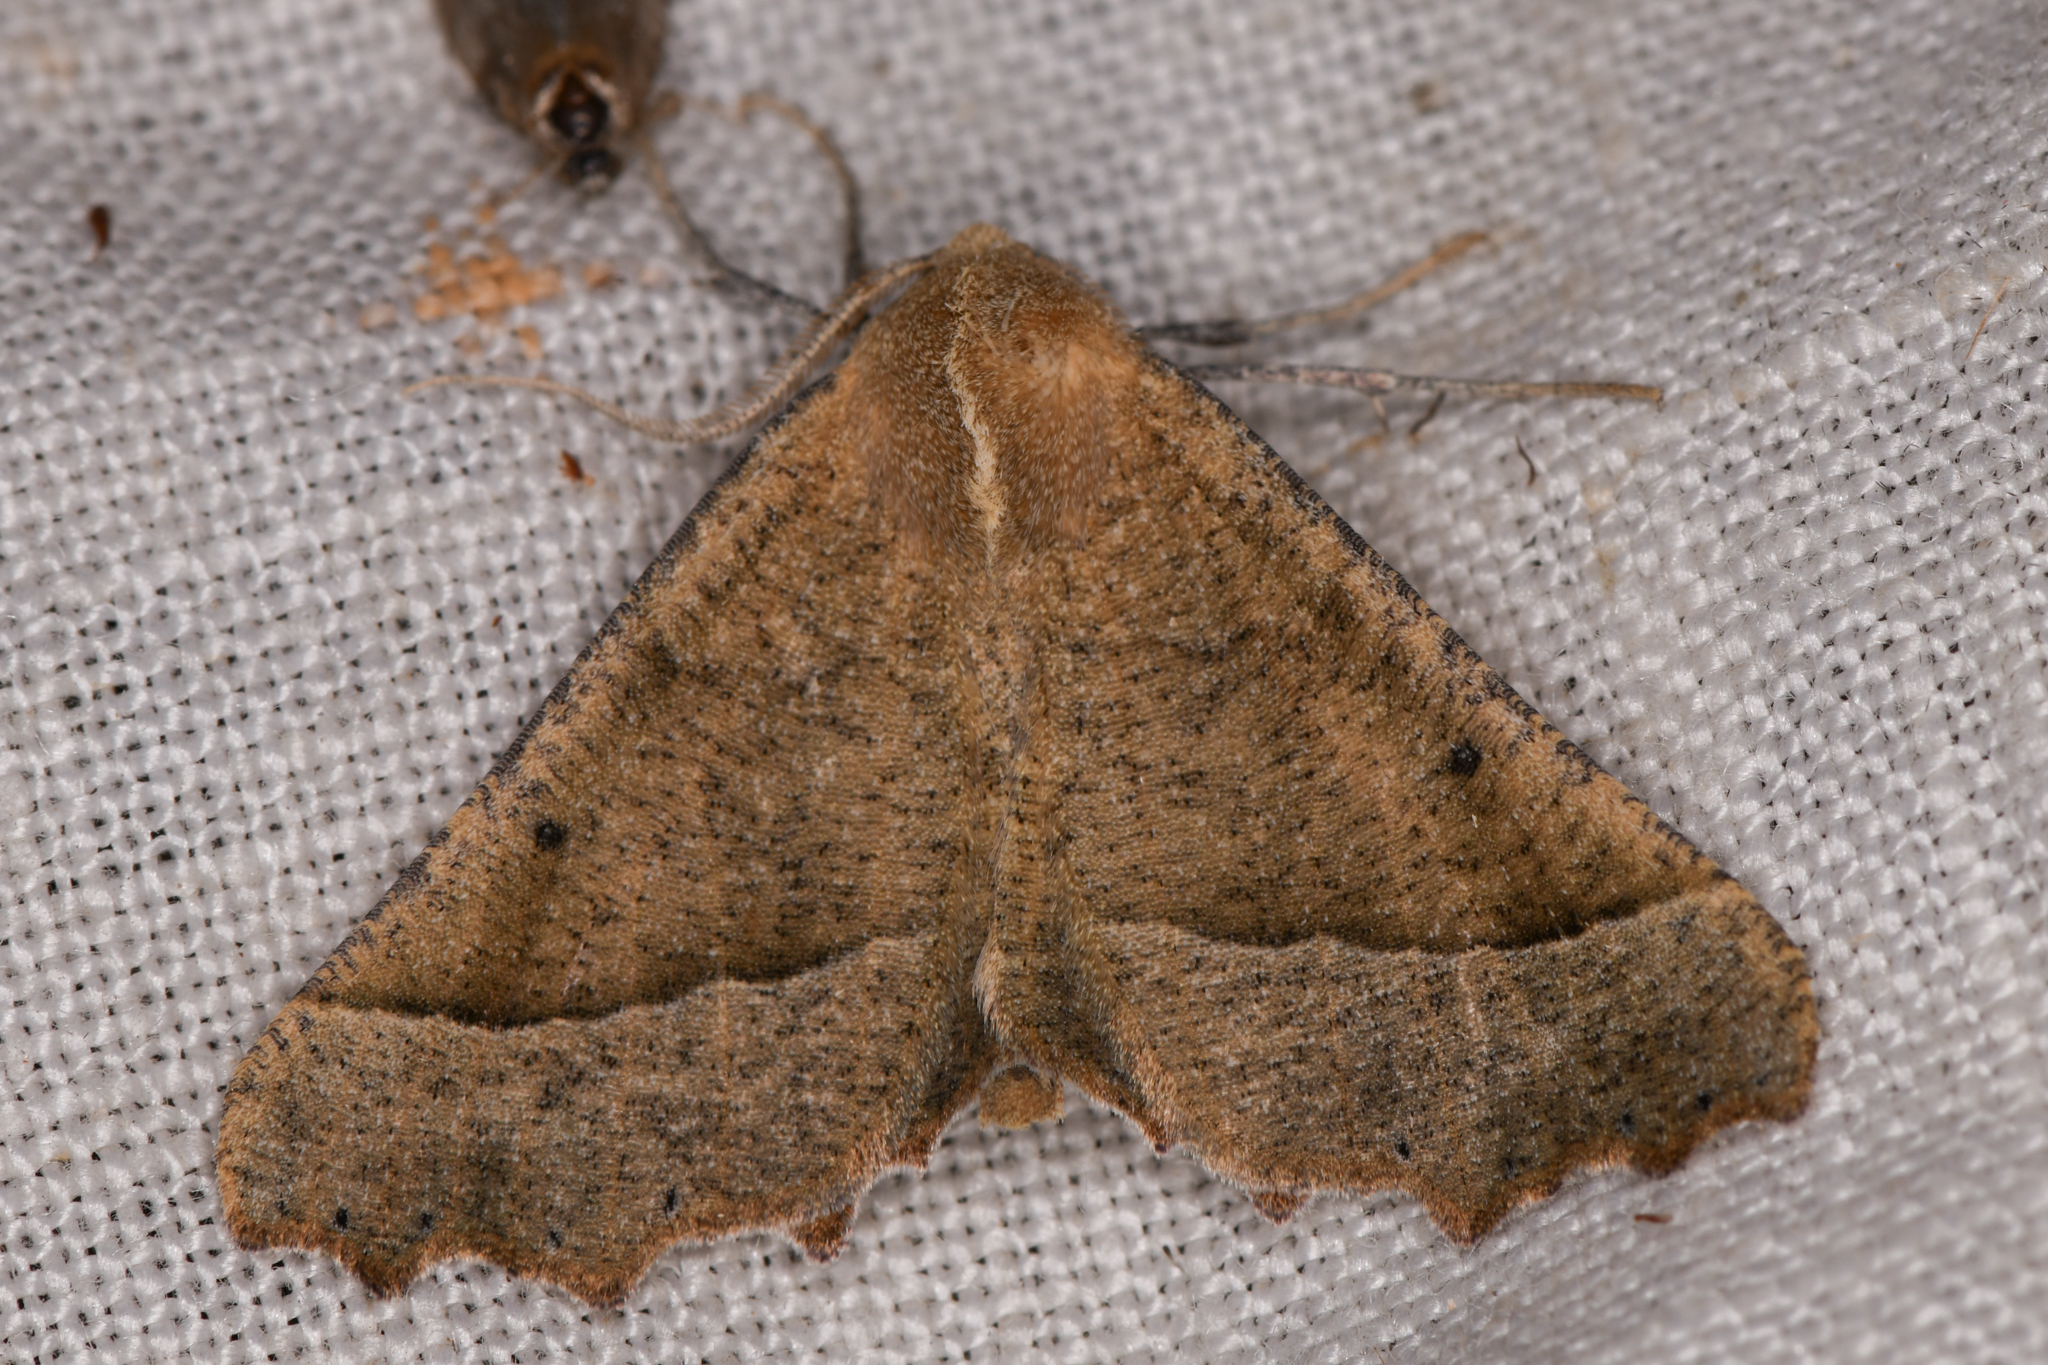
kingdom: Animalia
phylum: Arthropoda
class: Insecta
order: Lepidoptera
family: Geometridae
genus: Pero
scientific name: Pero radiosaria
